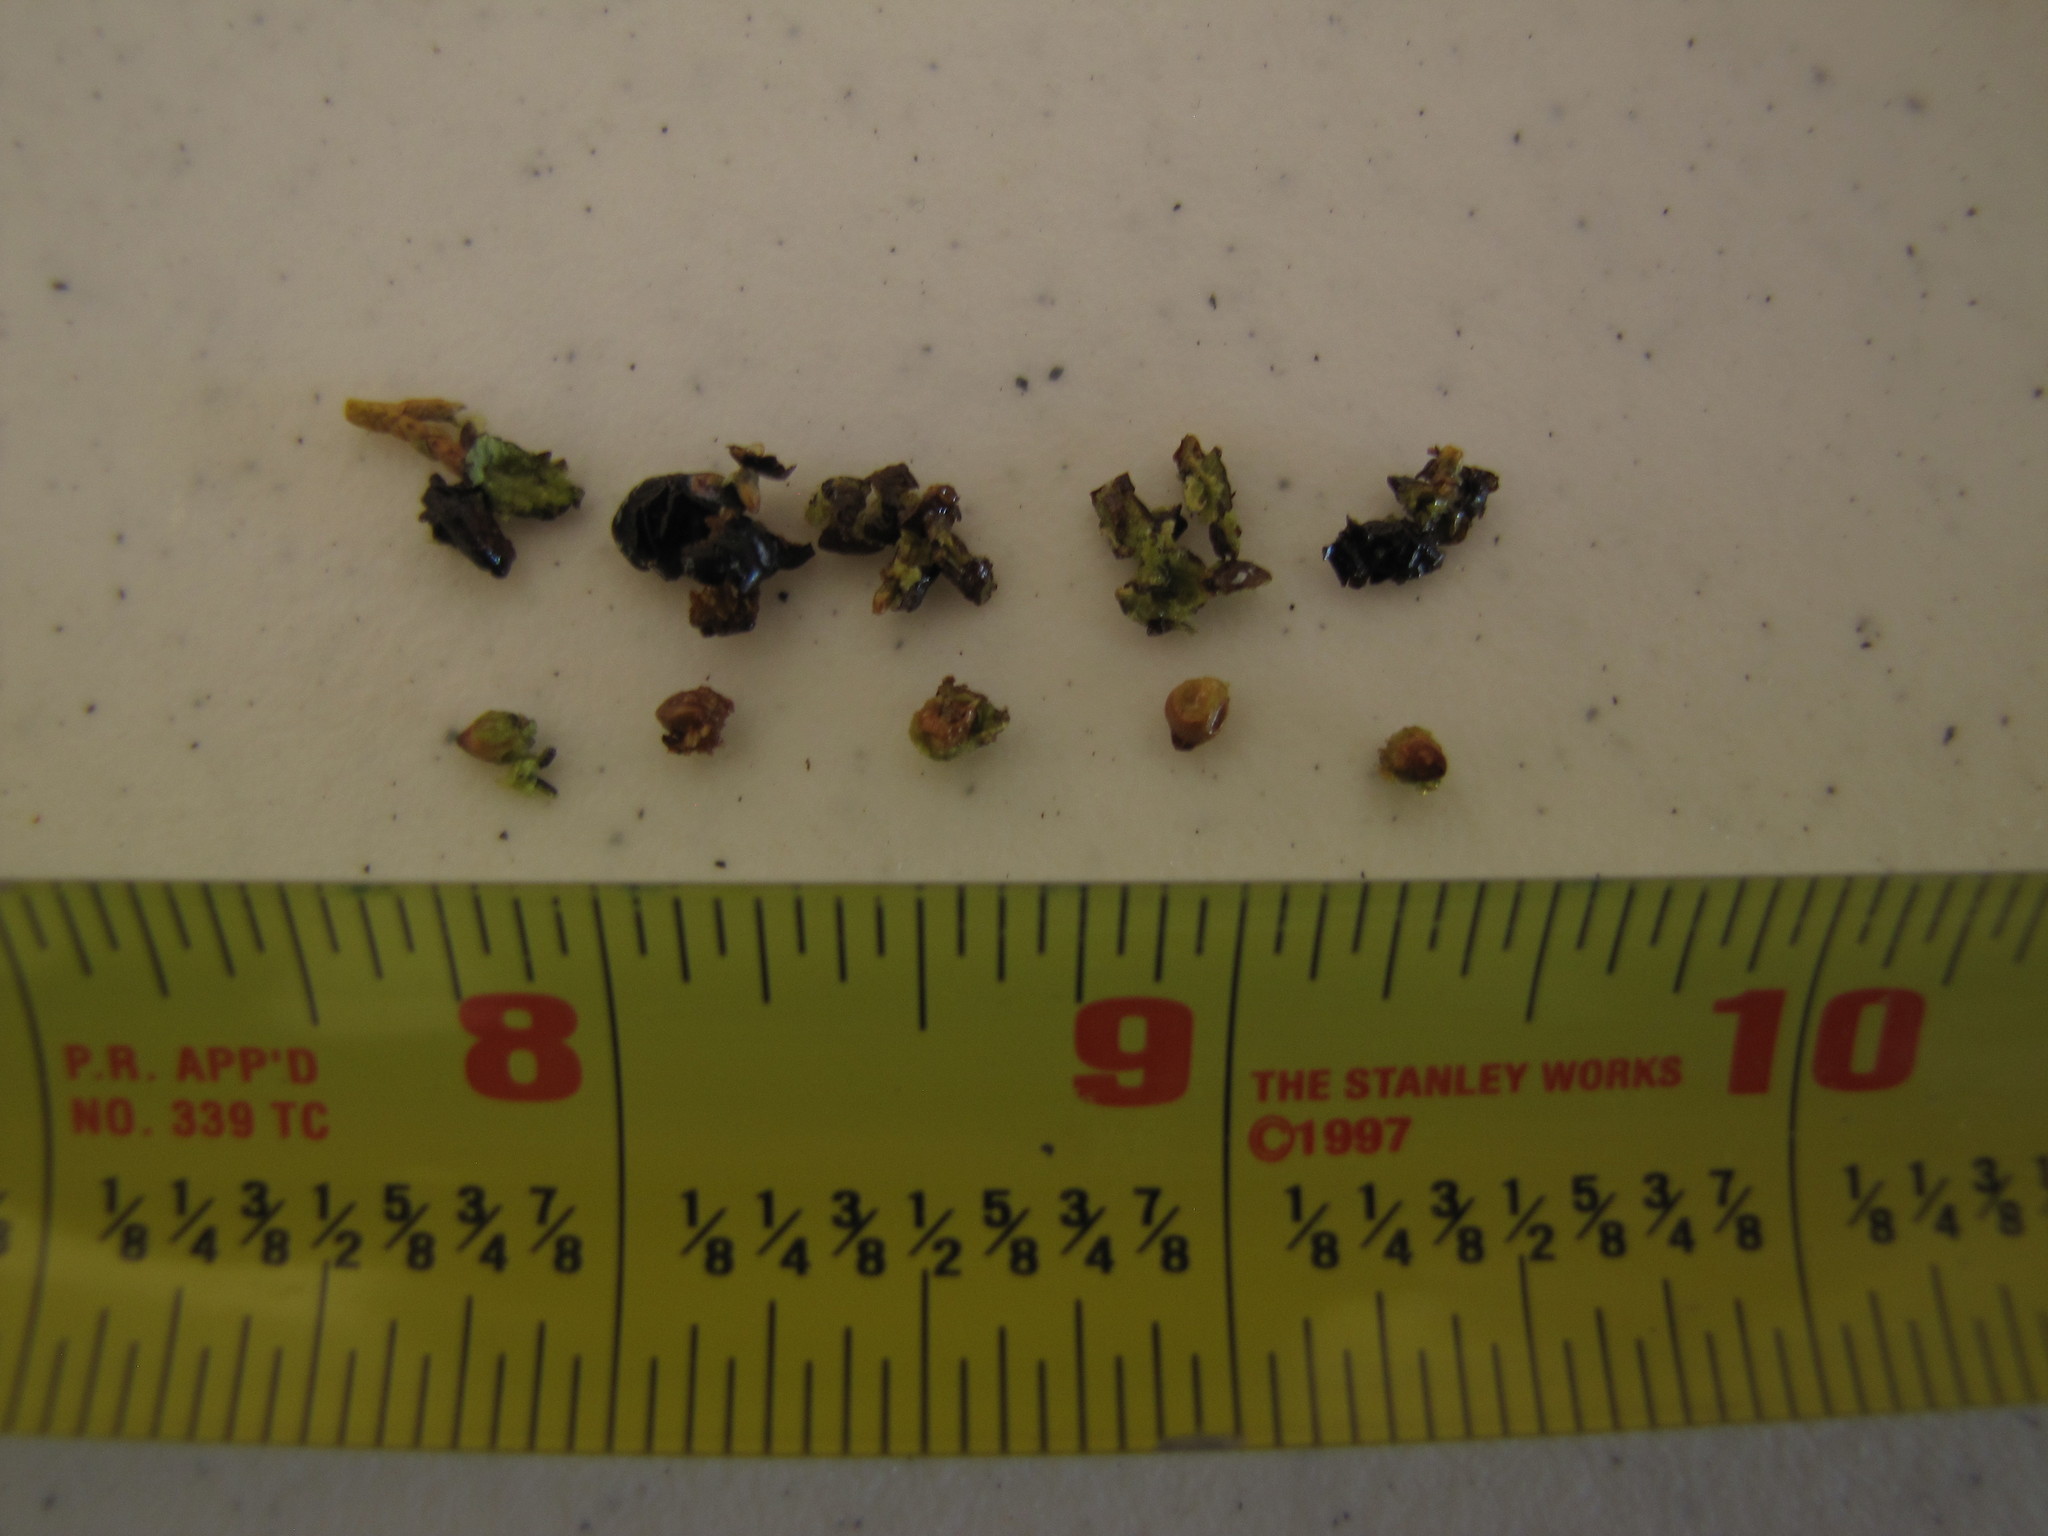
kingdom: Plantae
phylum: Tracheophyta
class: Pinopsida
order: Pinales
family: Cupressaceae
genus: Juniperus
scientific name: Juniperus monosperma
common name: One-seed juniper
